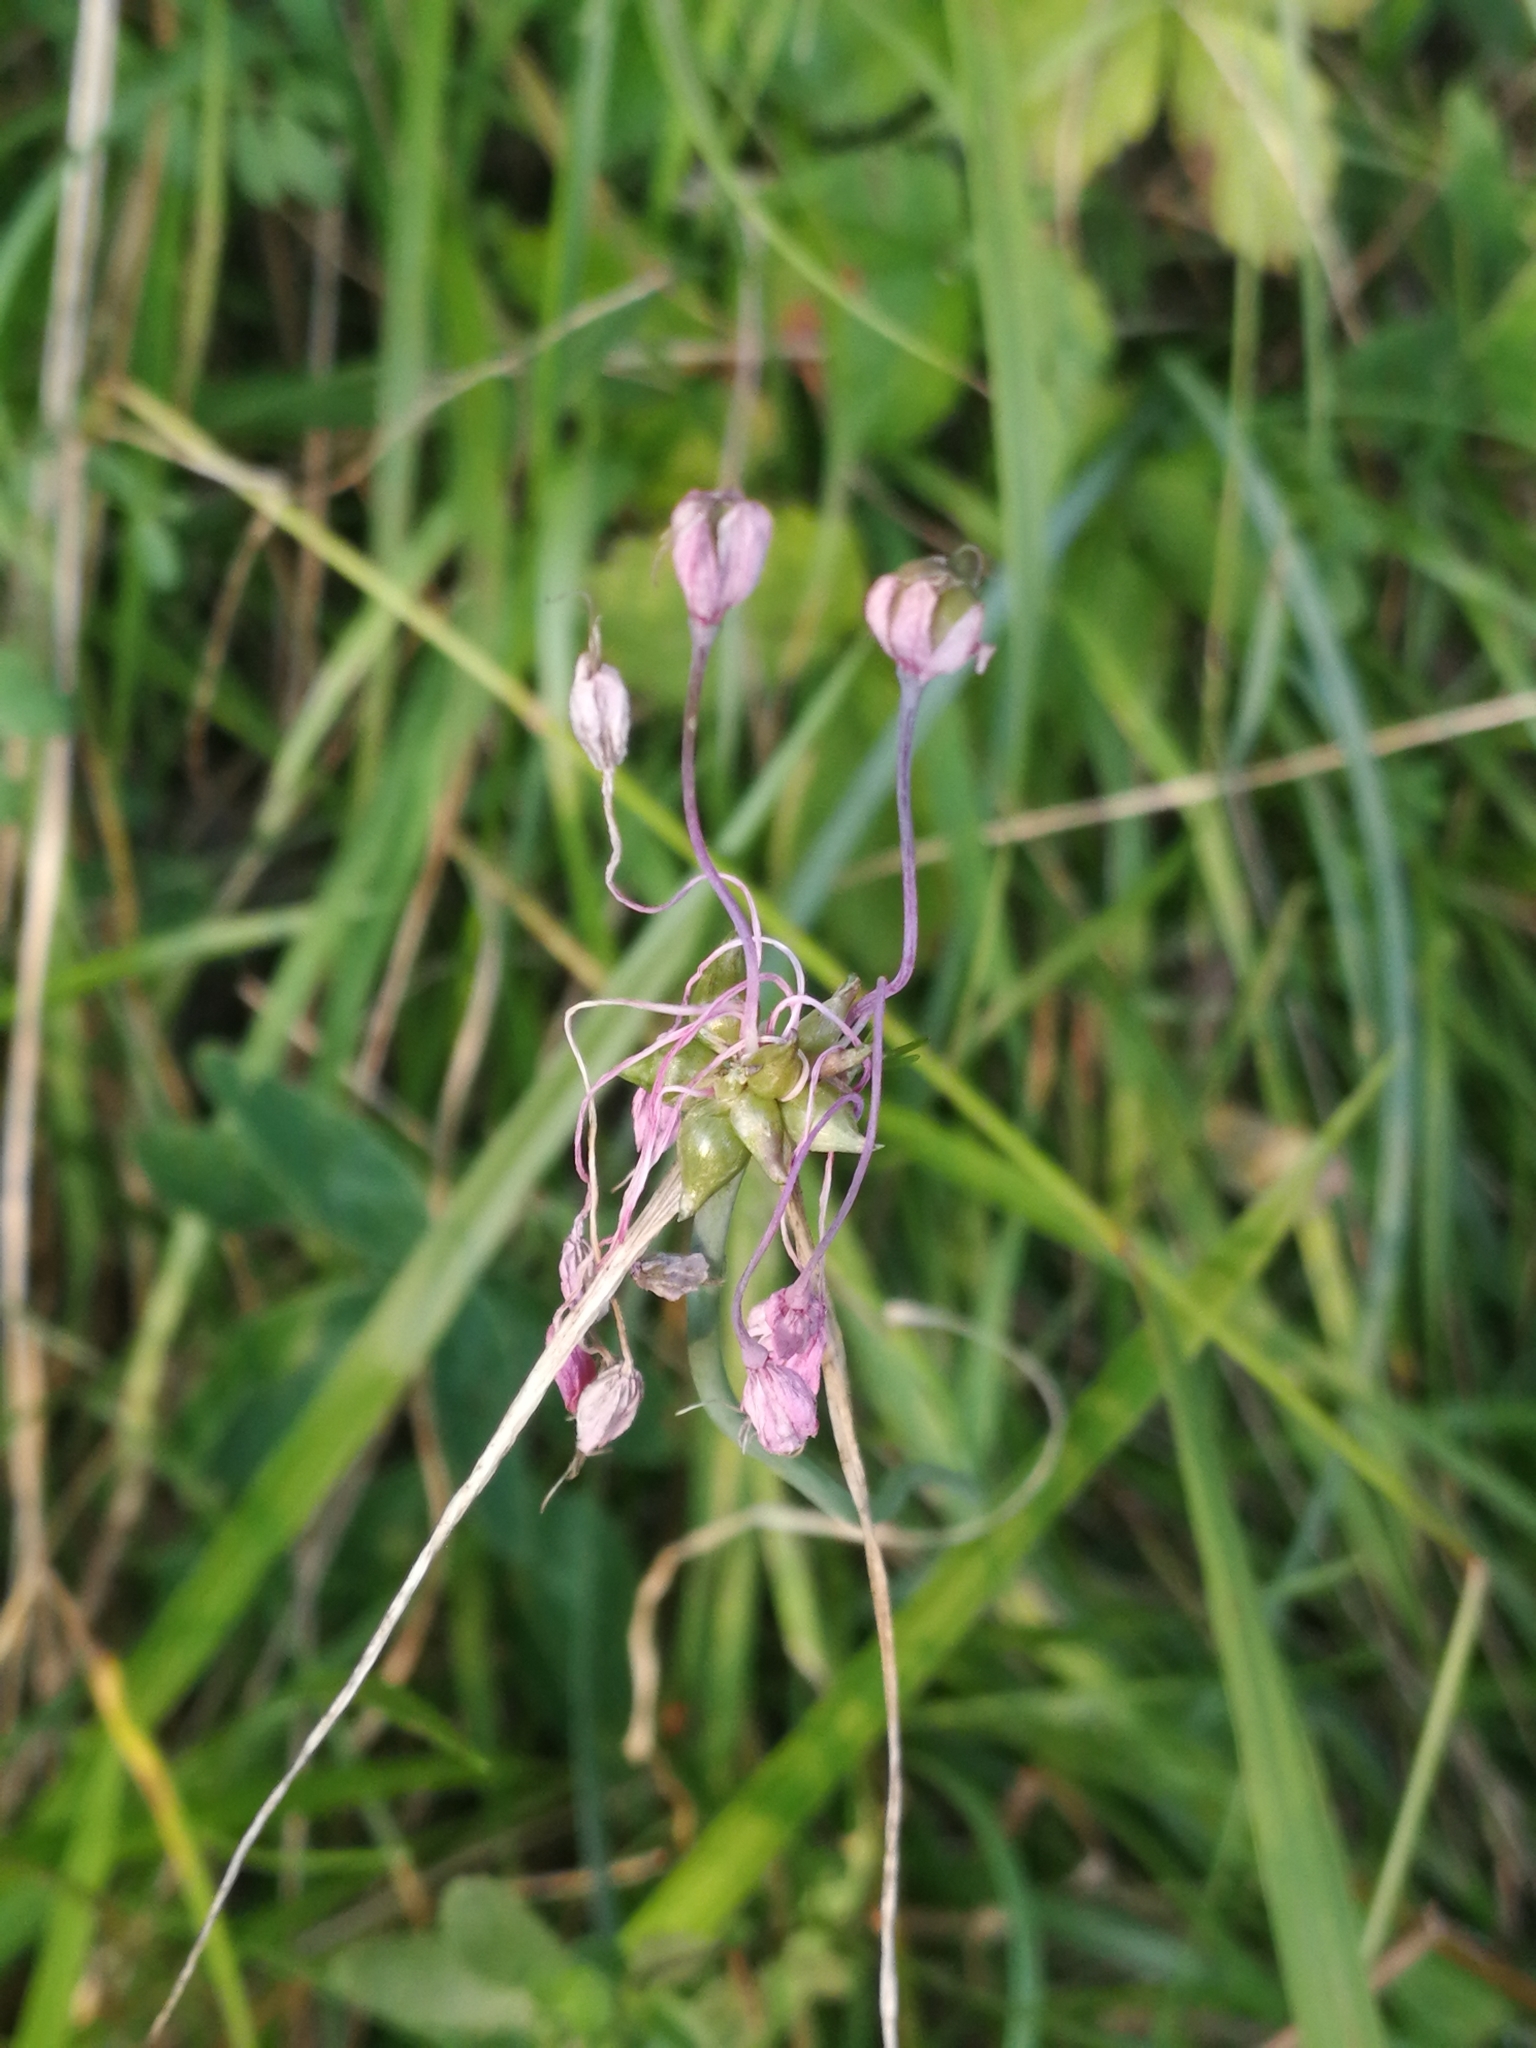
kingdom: Plantae
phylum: Tracheophyta
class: Liliopsida
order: Asparagales
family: Amaryllidaceae
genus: Allium
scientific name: Allium carinatum
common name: Keeled garlic
